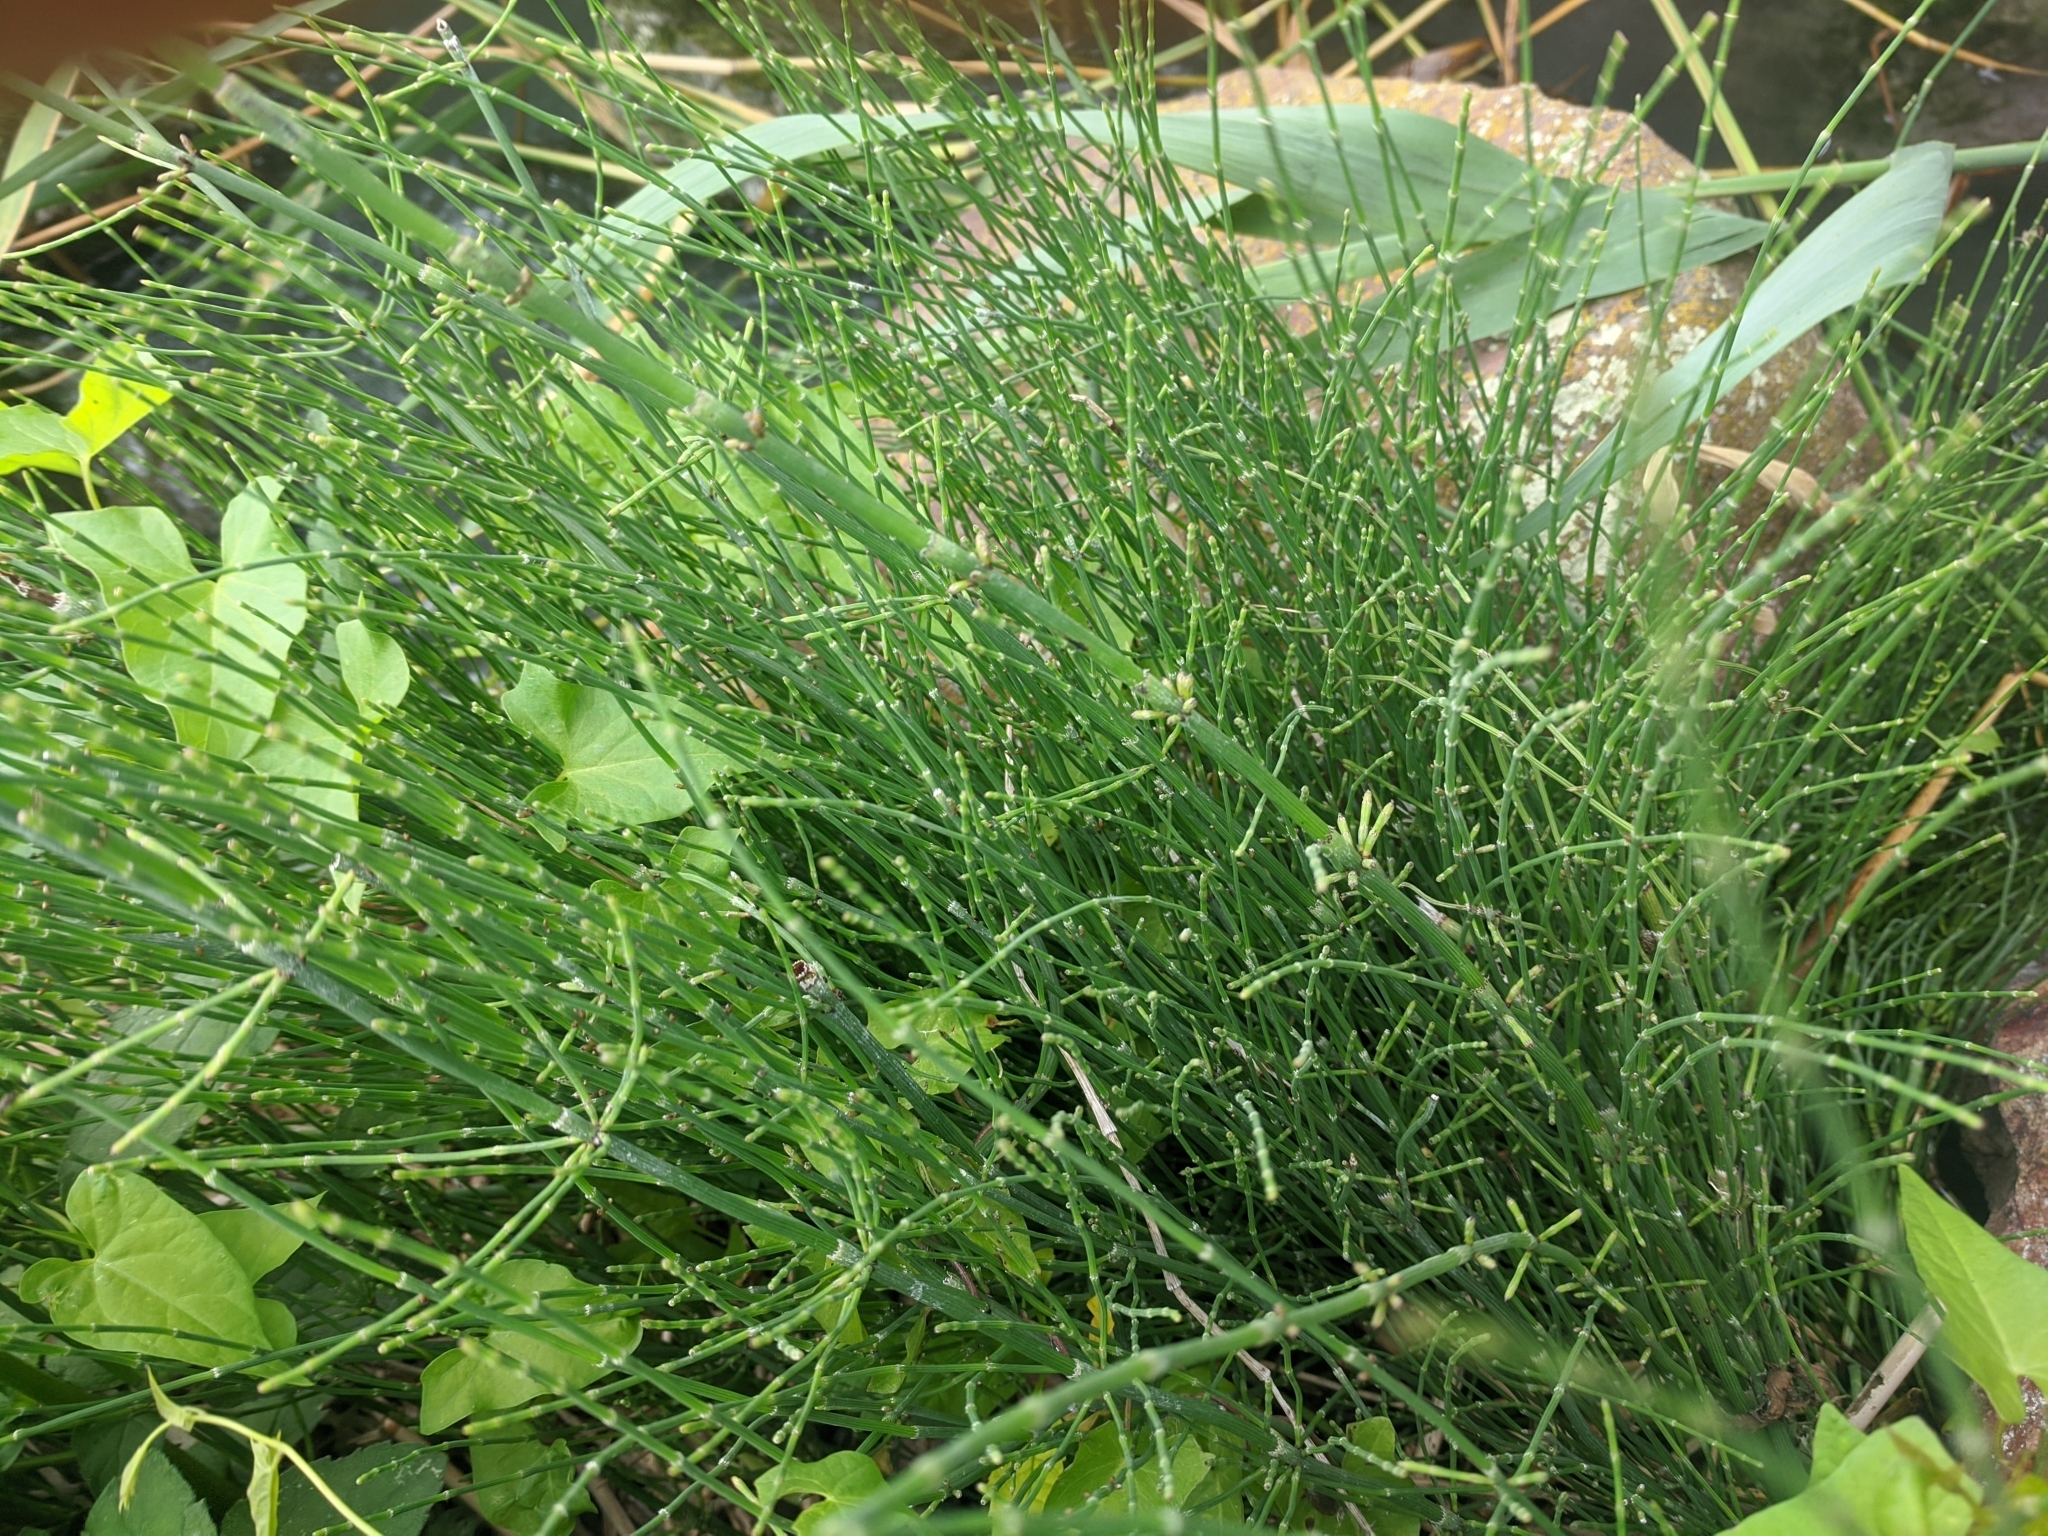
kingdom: Plantae
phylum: Tracheophyta
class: Polypodiopsida
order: Equisetales
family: Equisetaceae
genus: Equisetum
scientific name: Equisetum ramosissimum
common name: Branched horsetail
